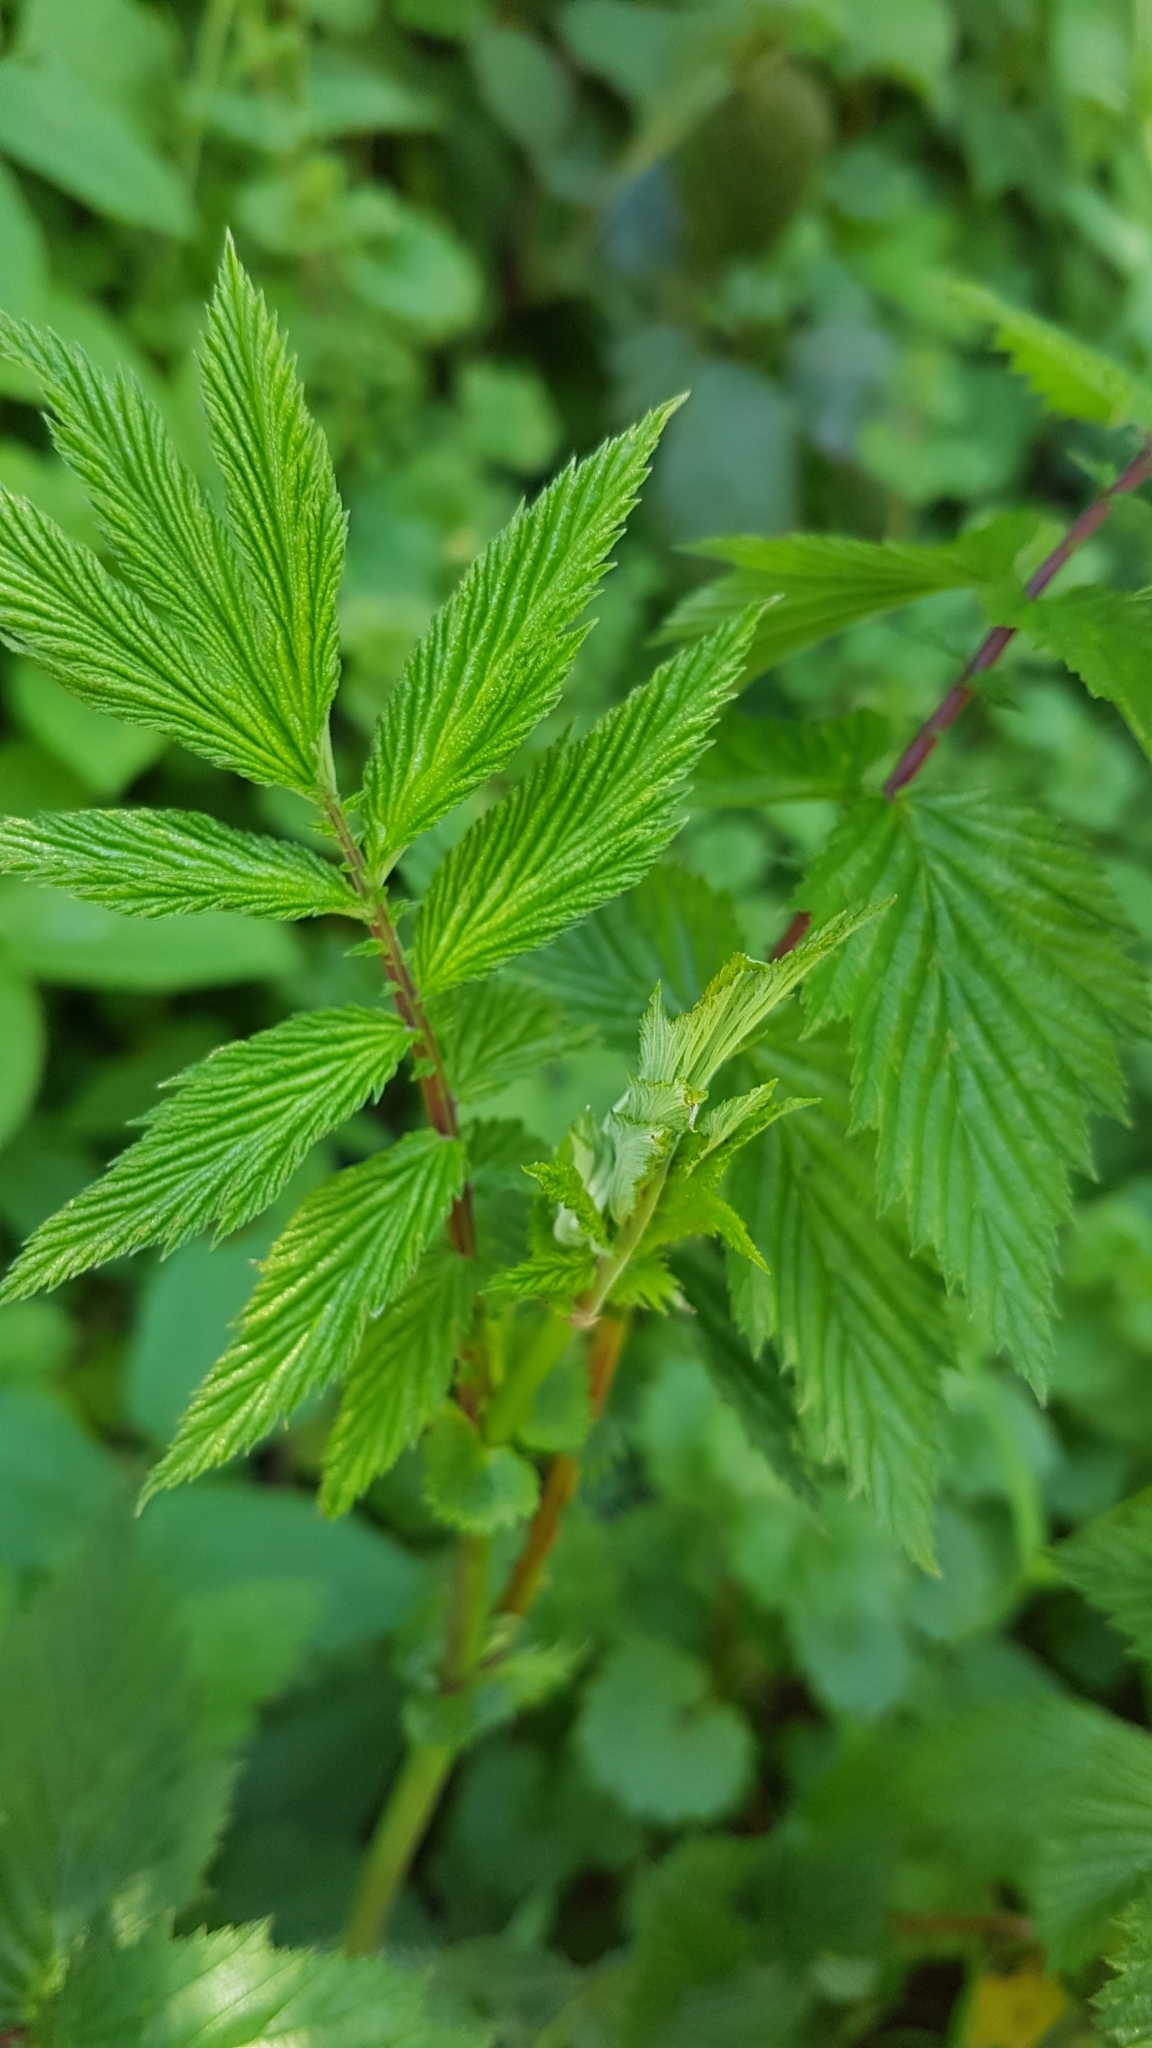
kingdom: Plantae
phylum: Tracheophyta
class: Magnoliopsida
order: Rosales
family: Rosaceae
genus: Filipendula
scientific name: Filipendula ulmaria
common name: Meadowsweet
